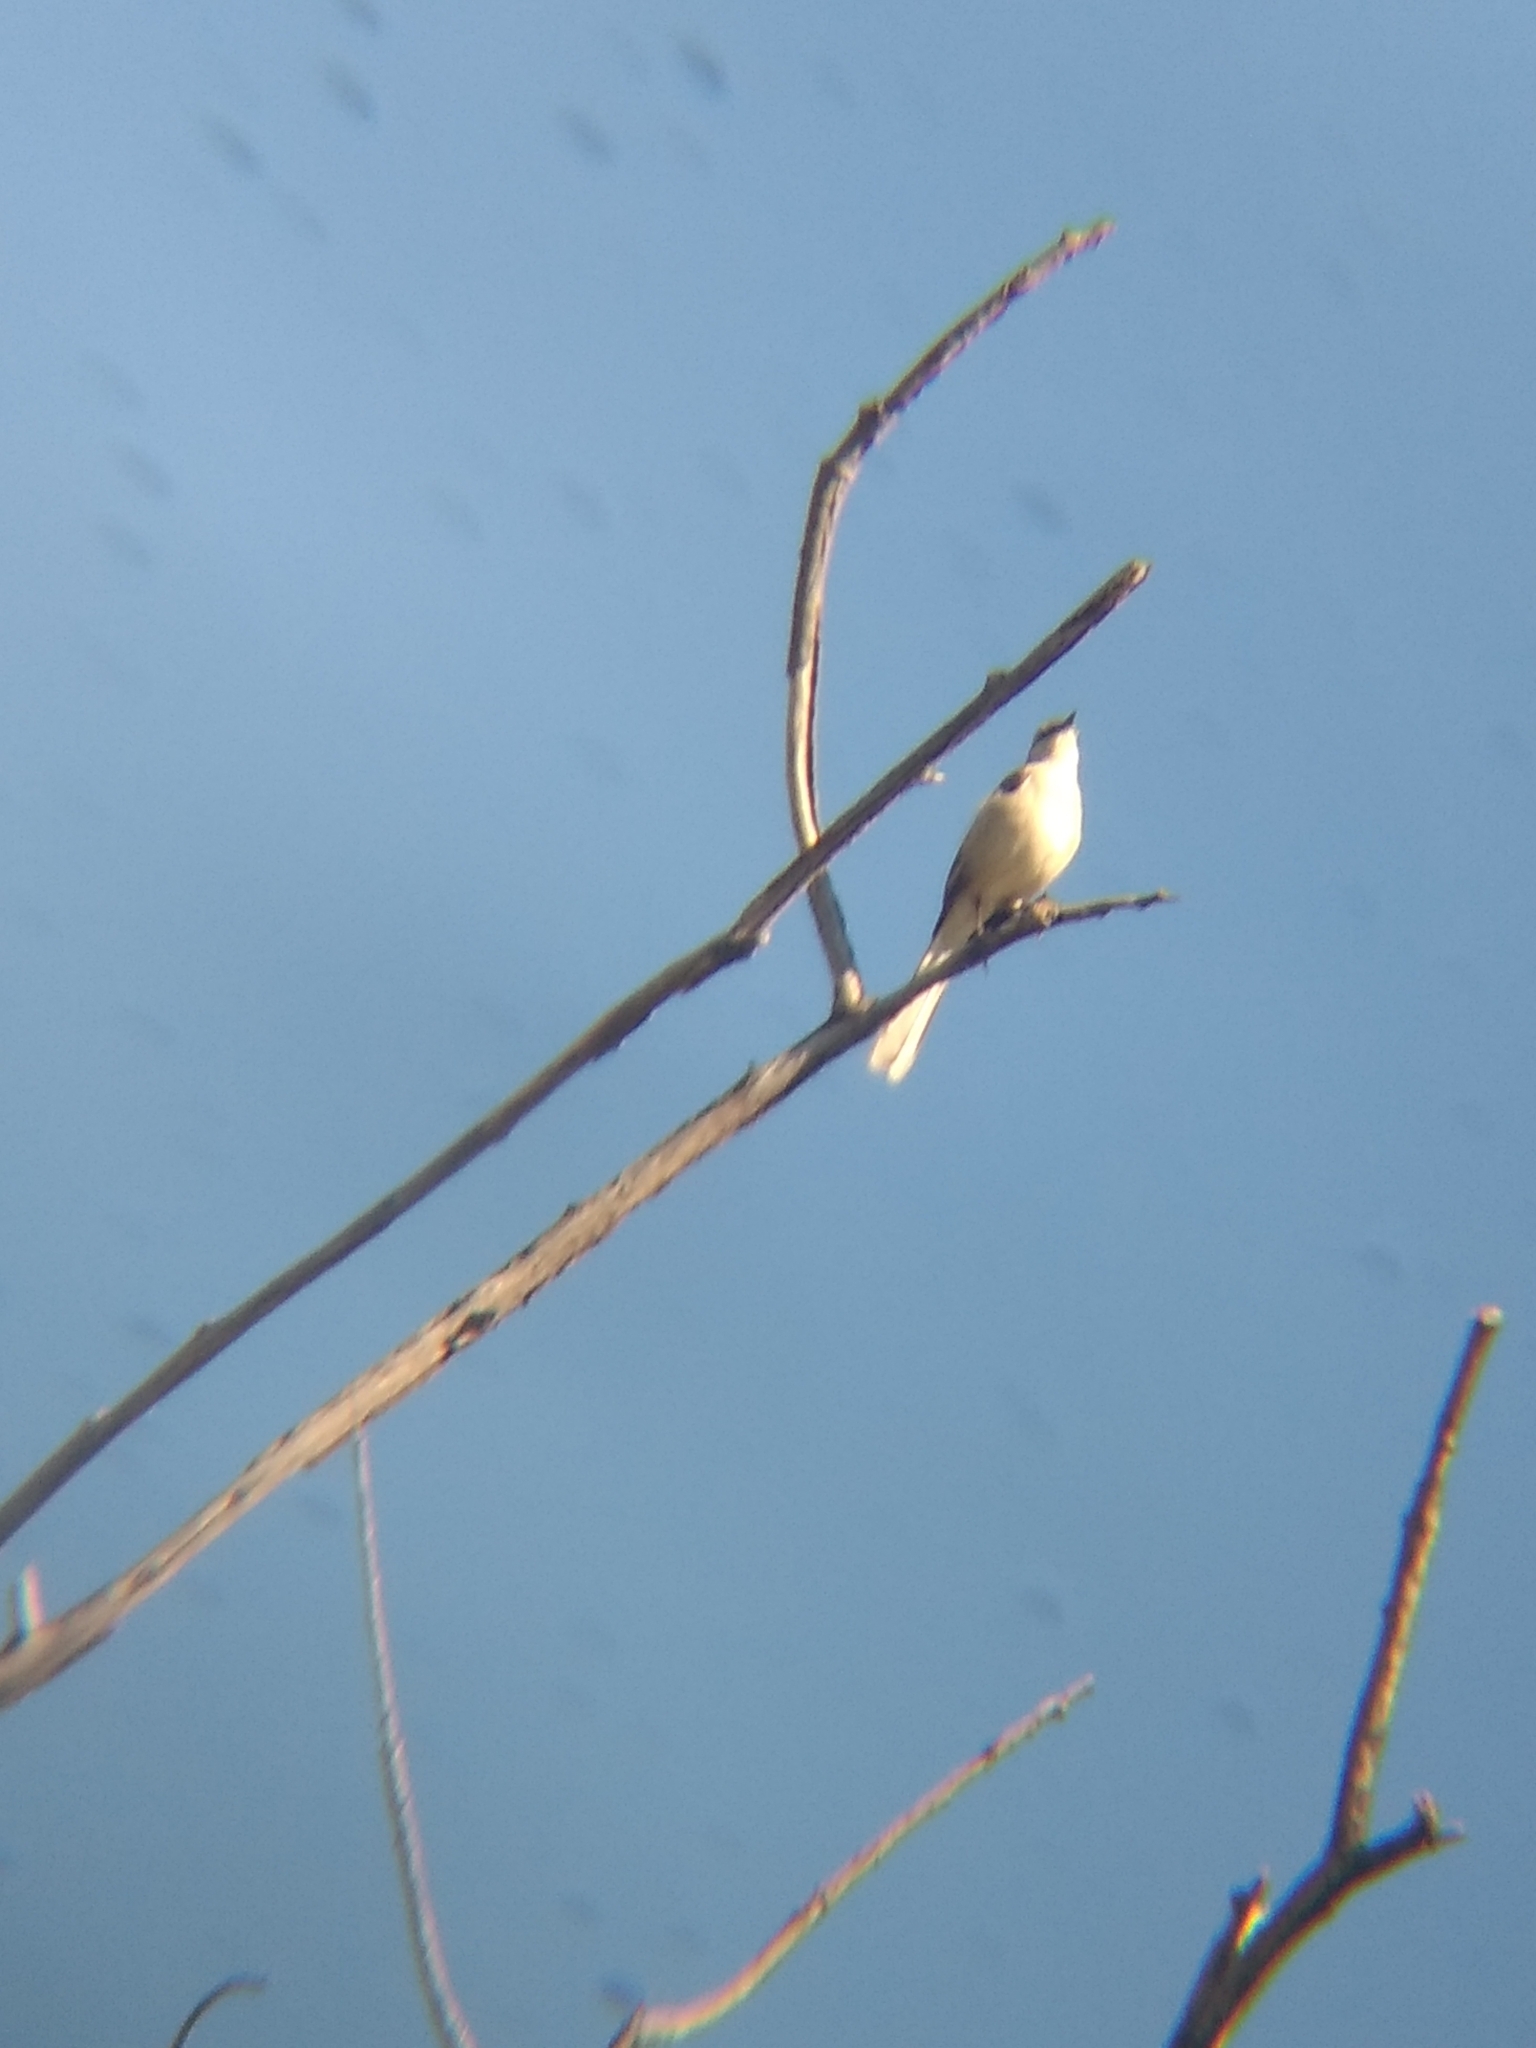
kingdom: Animalia
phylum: Chordata
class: Aves
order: Passeriformes
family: Mimidae
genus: Mimus
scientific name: Mimus polyglottos
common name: Northern mockingbird
